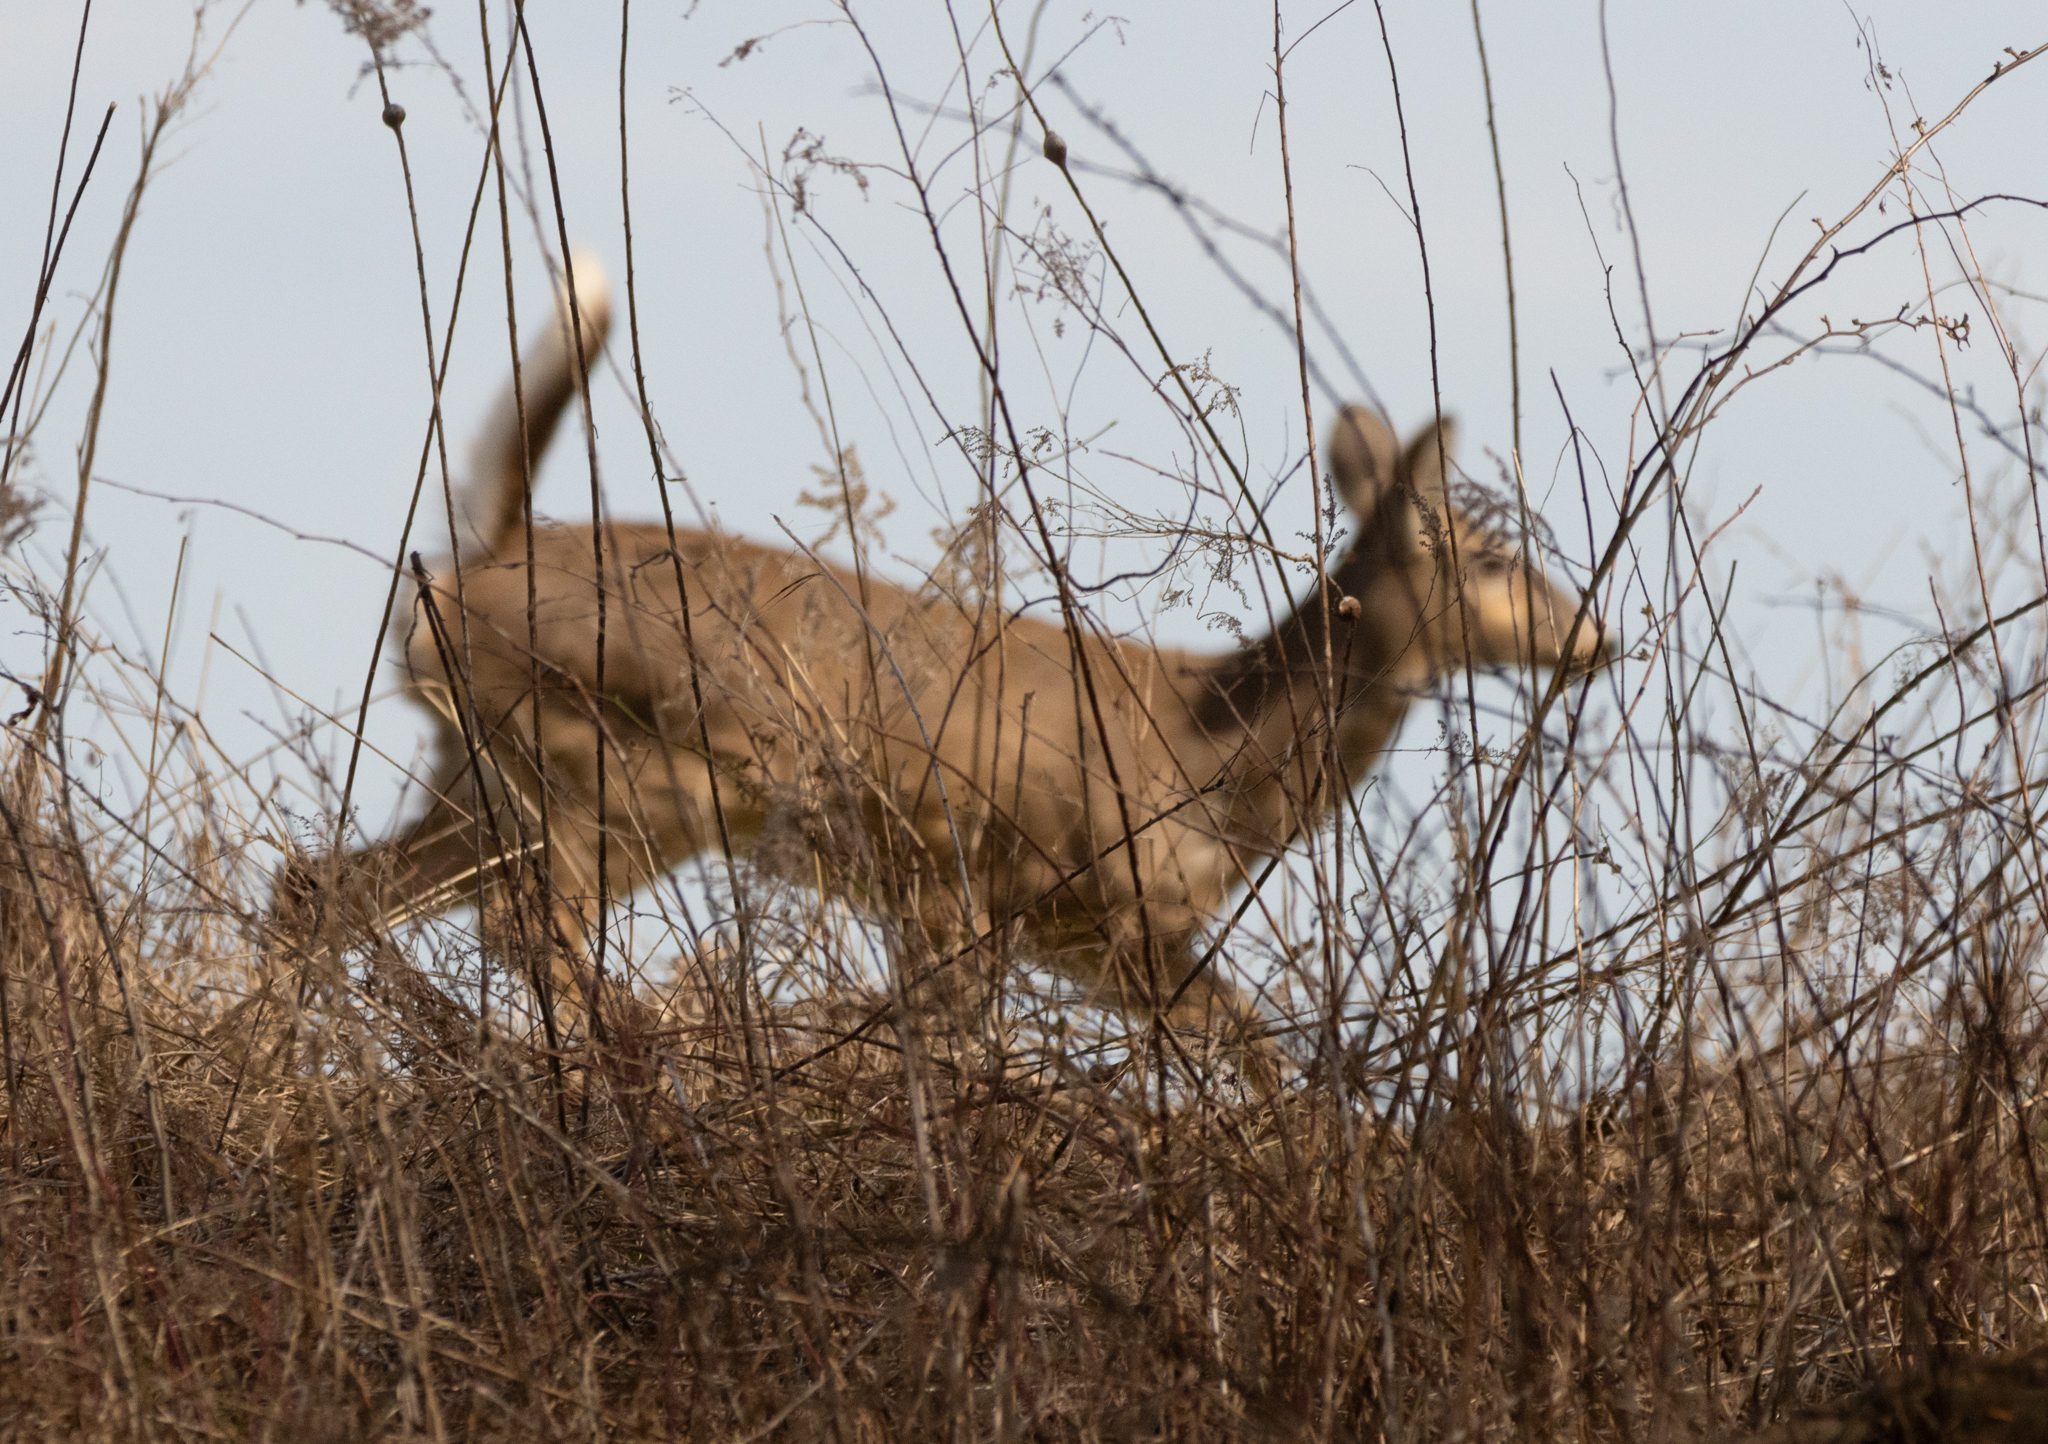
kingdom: Animalia
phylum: Chordata
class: Mammalia
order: Artiodactyla
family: Cervidae
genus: Odocoileus
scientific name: Odocoileus virginianus
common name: White-tailed deer
